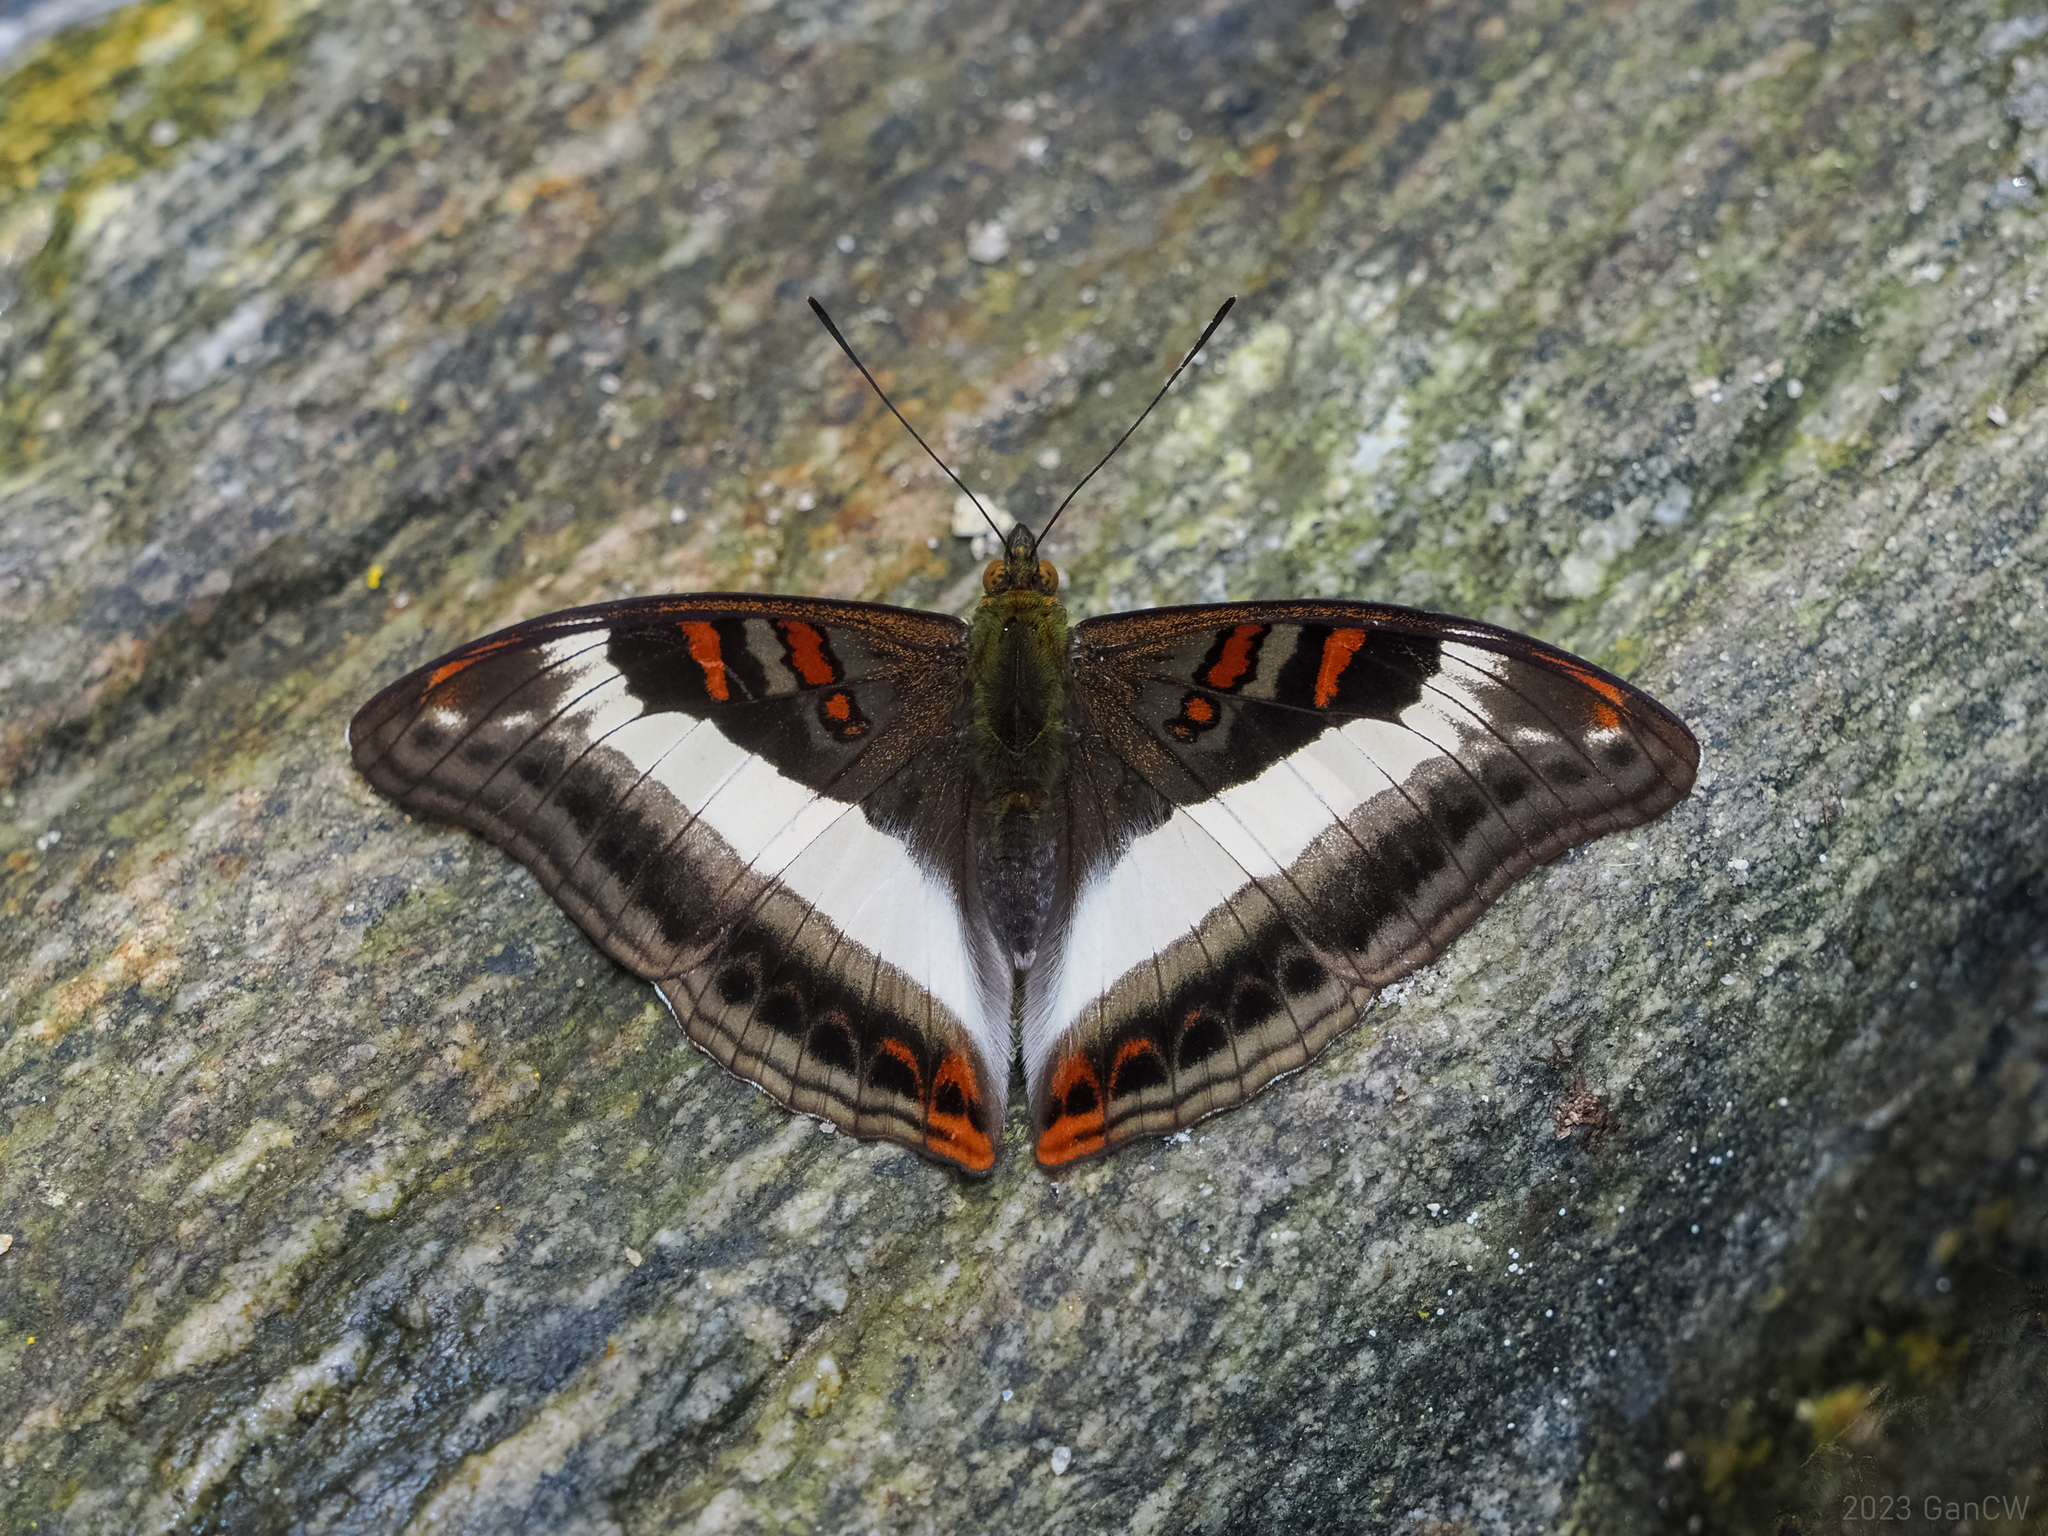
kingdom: Animalia
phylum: Arthropoda
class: Insecta
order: Lepidoptera
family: Nymphalidae
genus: Limenitis
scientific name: Limenitis Parasarpa dudu
